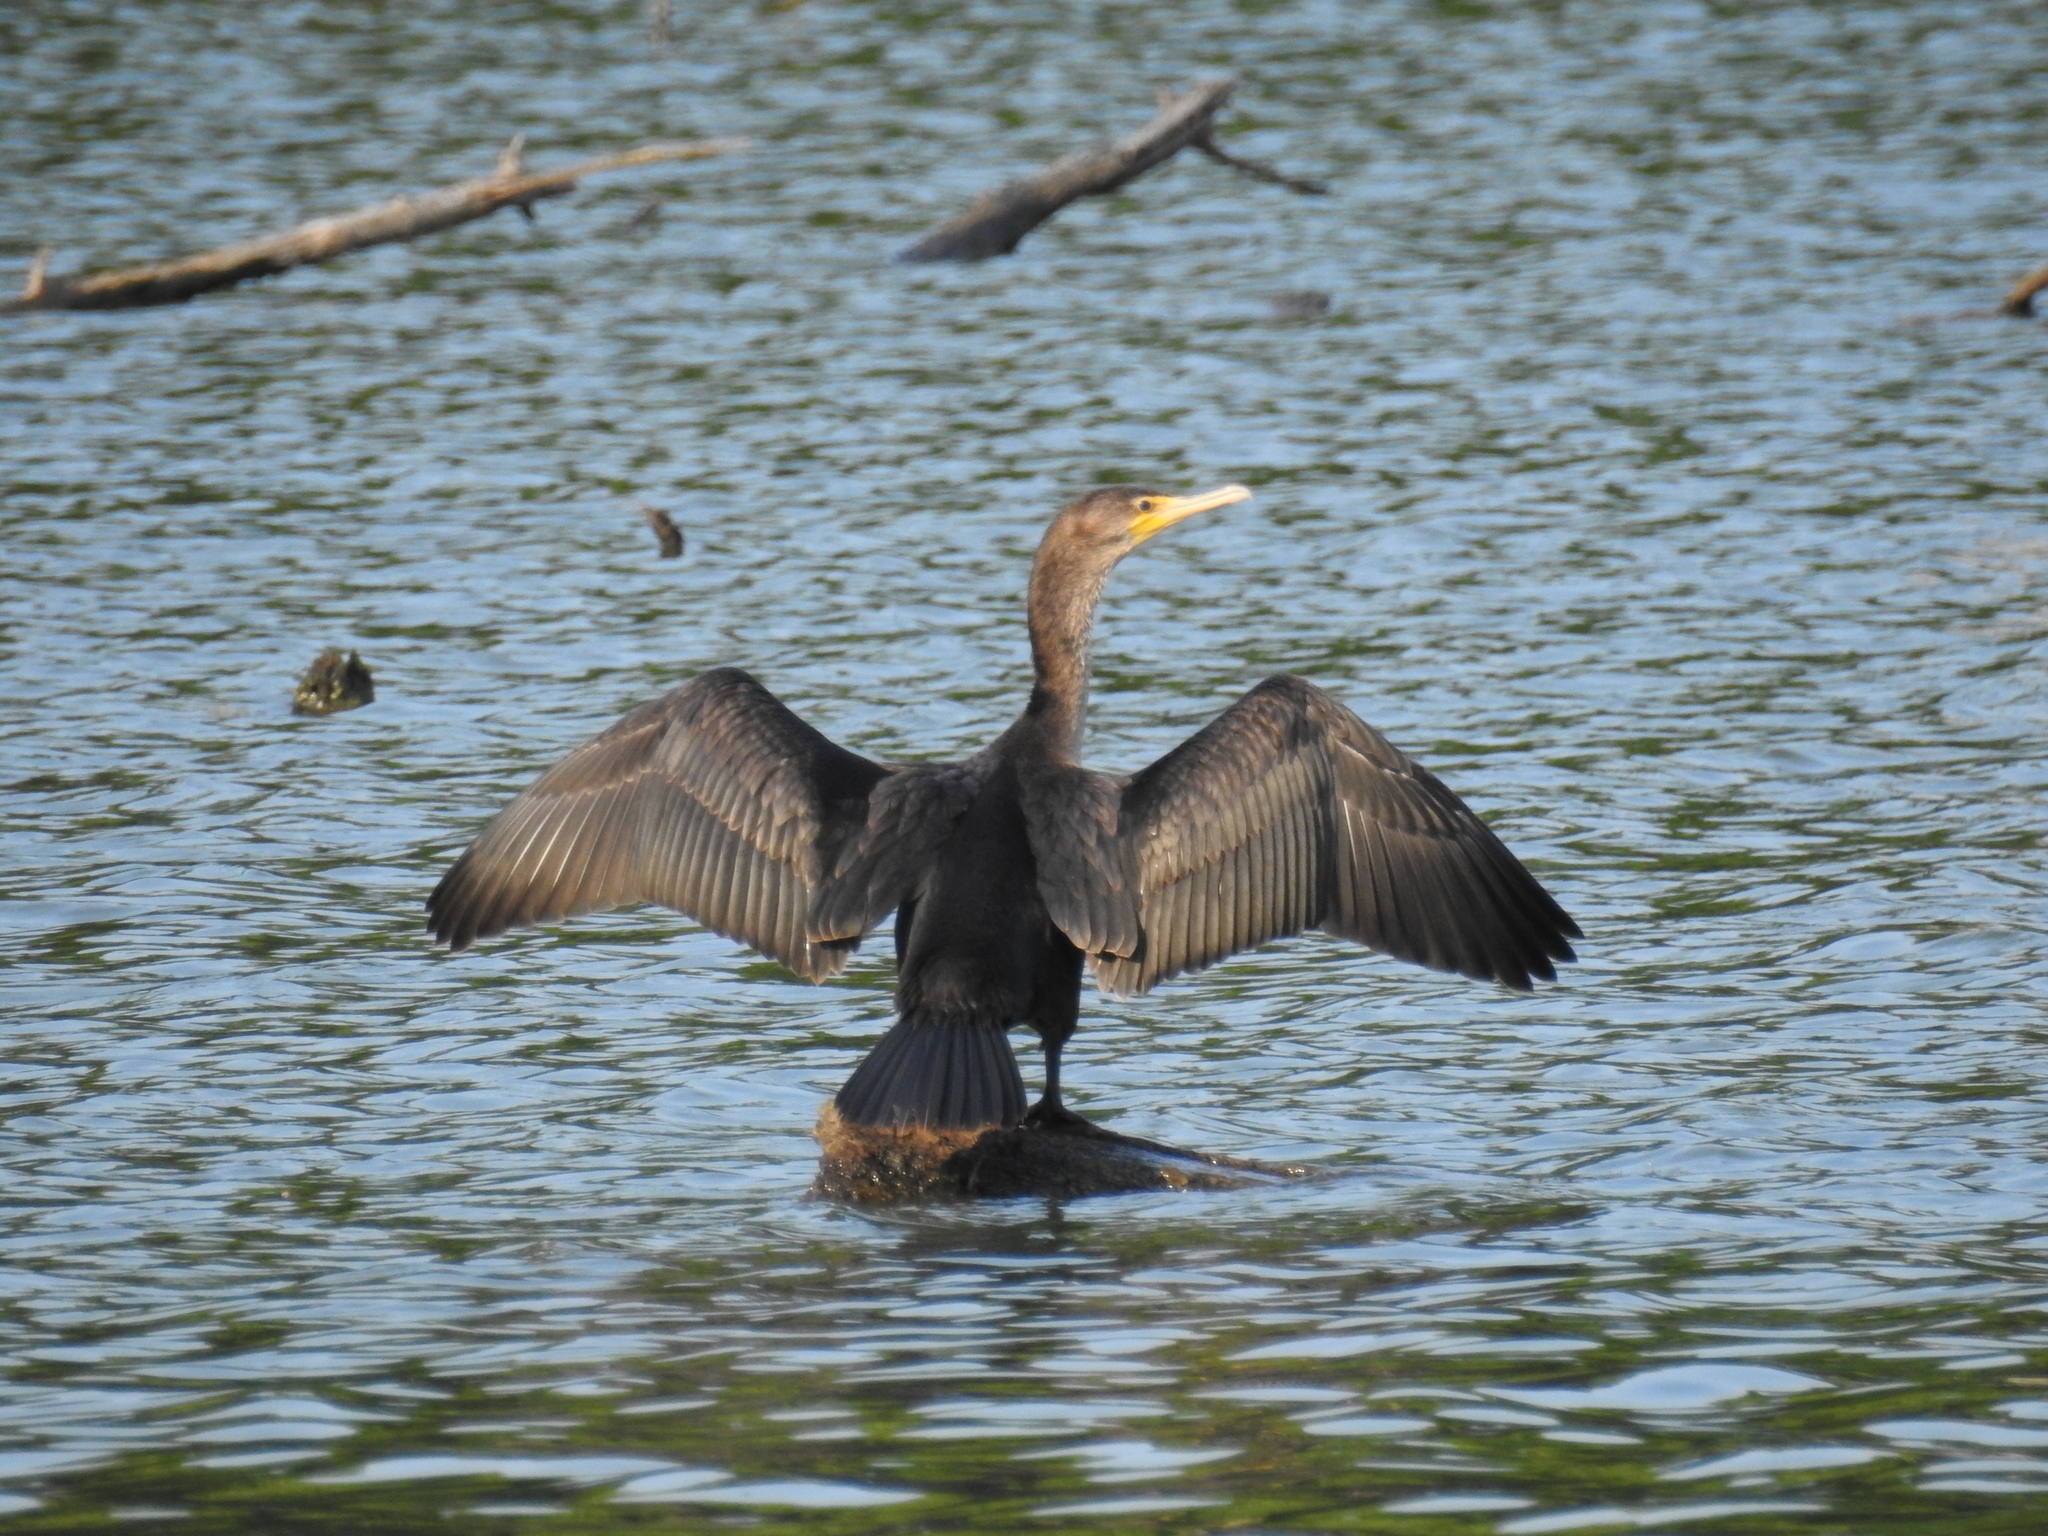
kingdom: Animalia
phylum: Chordata
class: Aves
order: Suliformes
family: Phalacrocoracidae
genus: Phalacrocorax
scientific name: Phalacrocorax auritus
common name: Double-crested cormorant
